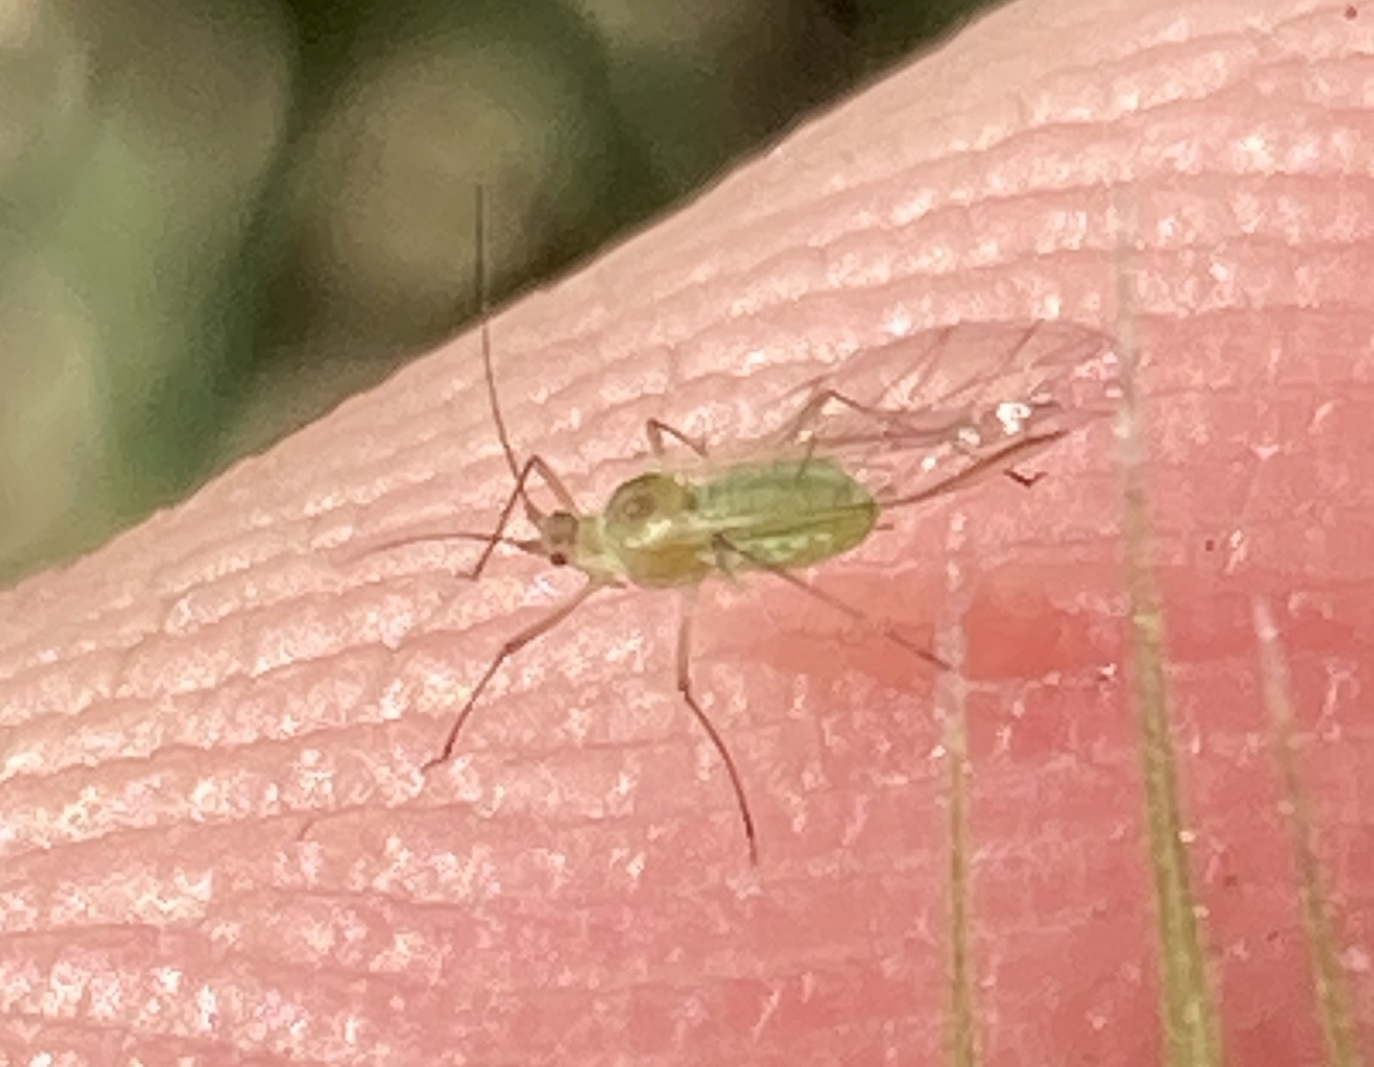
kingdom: Animalia
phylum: Arthropoda
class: Insecta
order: Hemiptera
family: Aphididae
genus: Metopolophium
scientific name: Metopolophium dirhodum
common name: Rose-grass aphid
